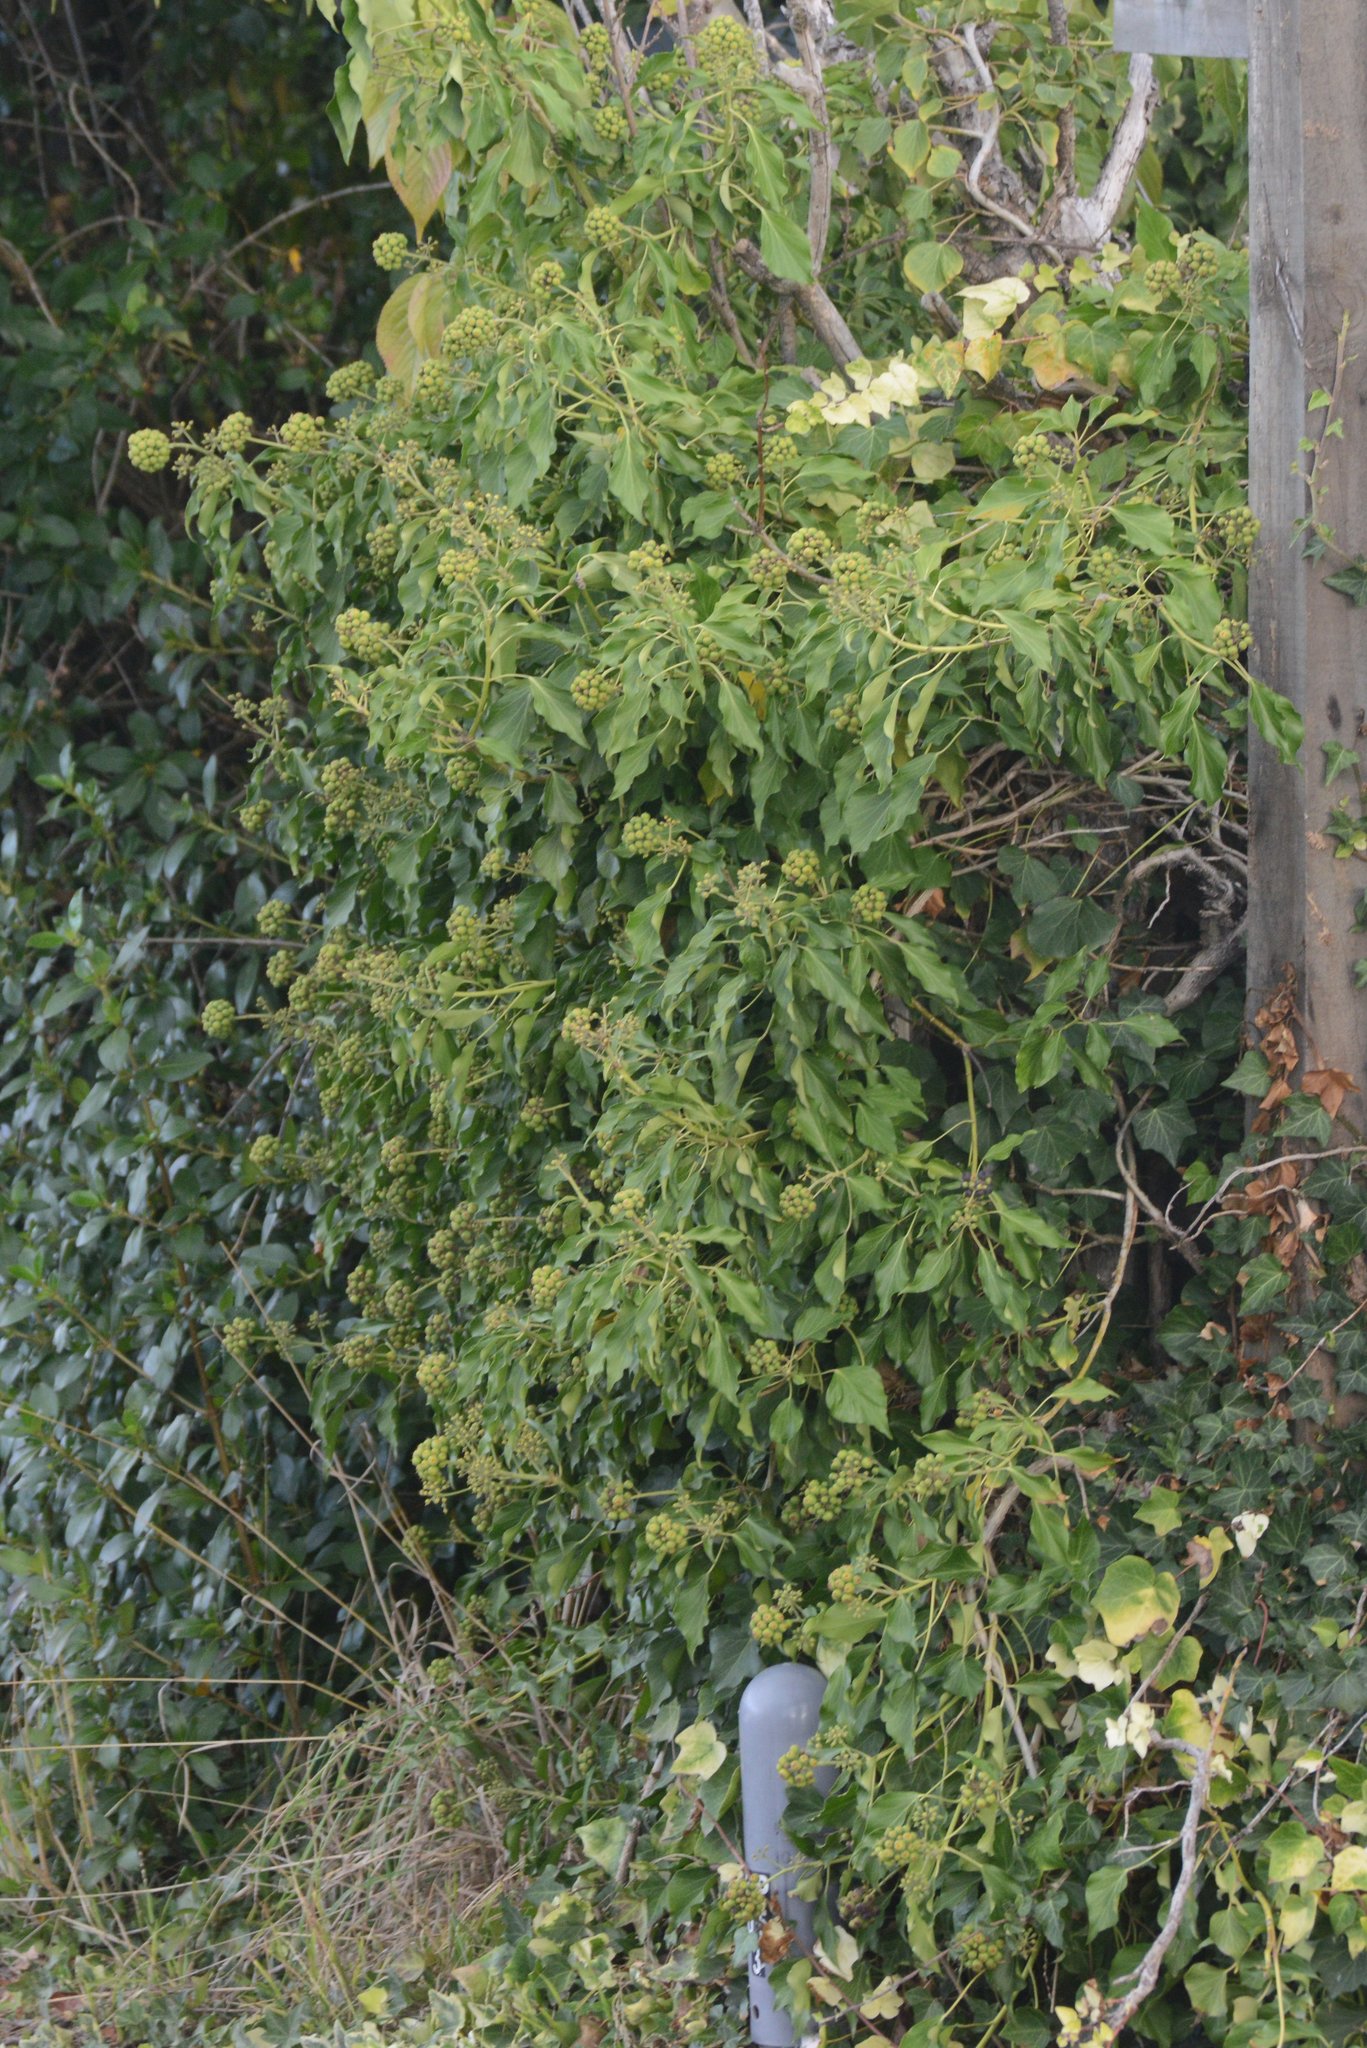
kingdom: Plantae
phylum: Tracheophyta
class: Magnoliopsida
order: Apiales
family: Araliaceae
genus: Hedera
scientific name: Hedera helix
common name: Ivy
